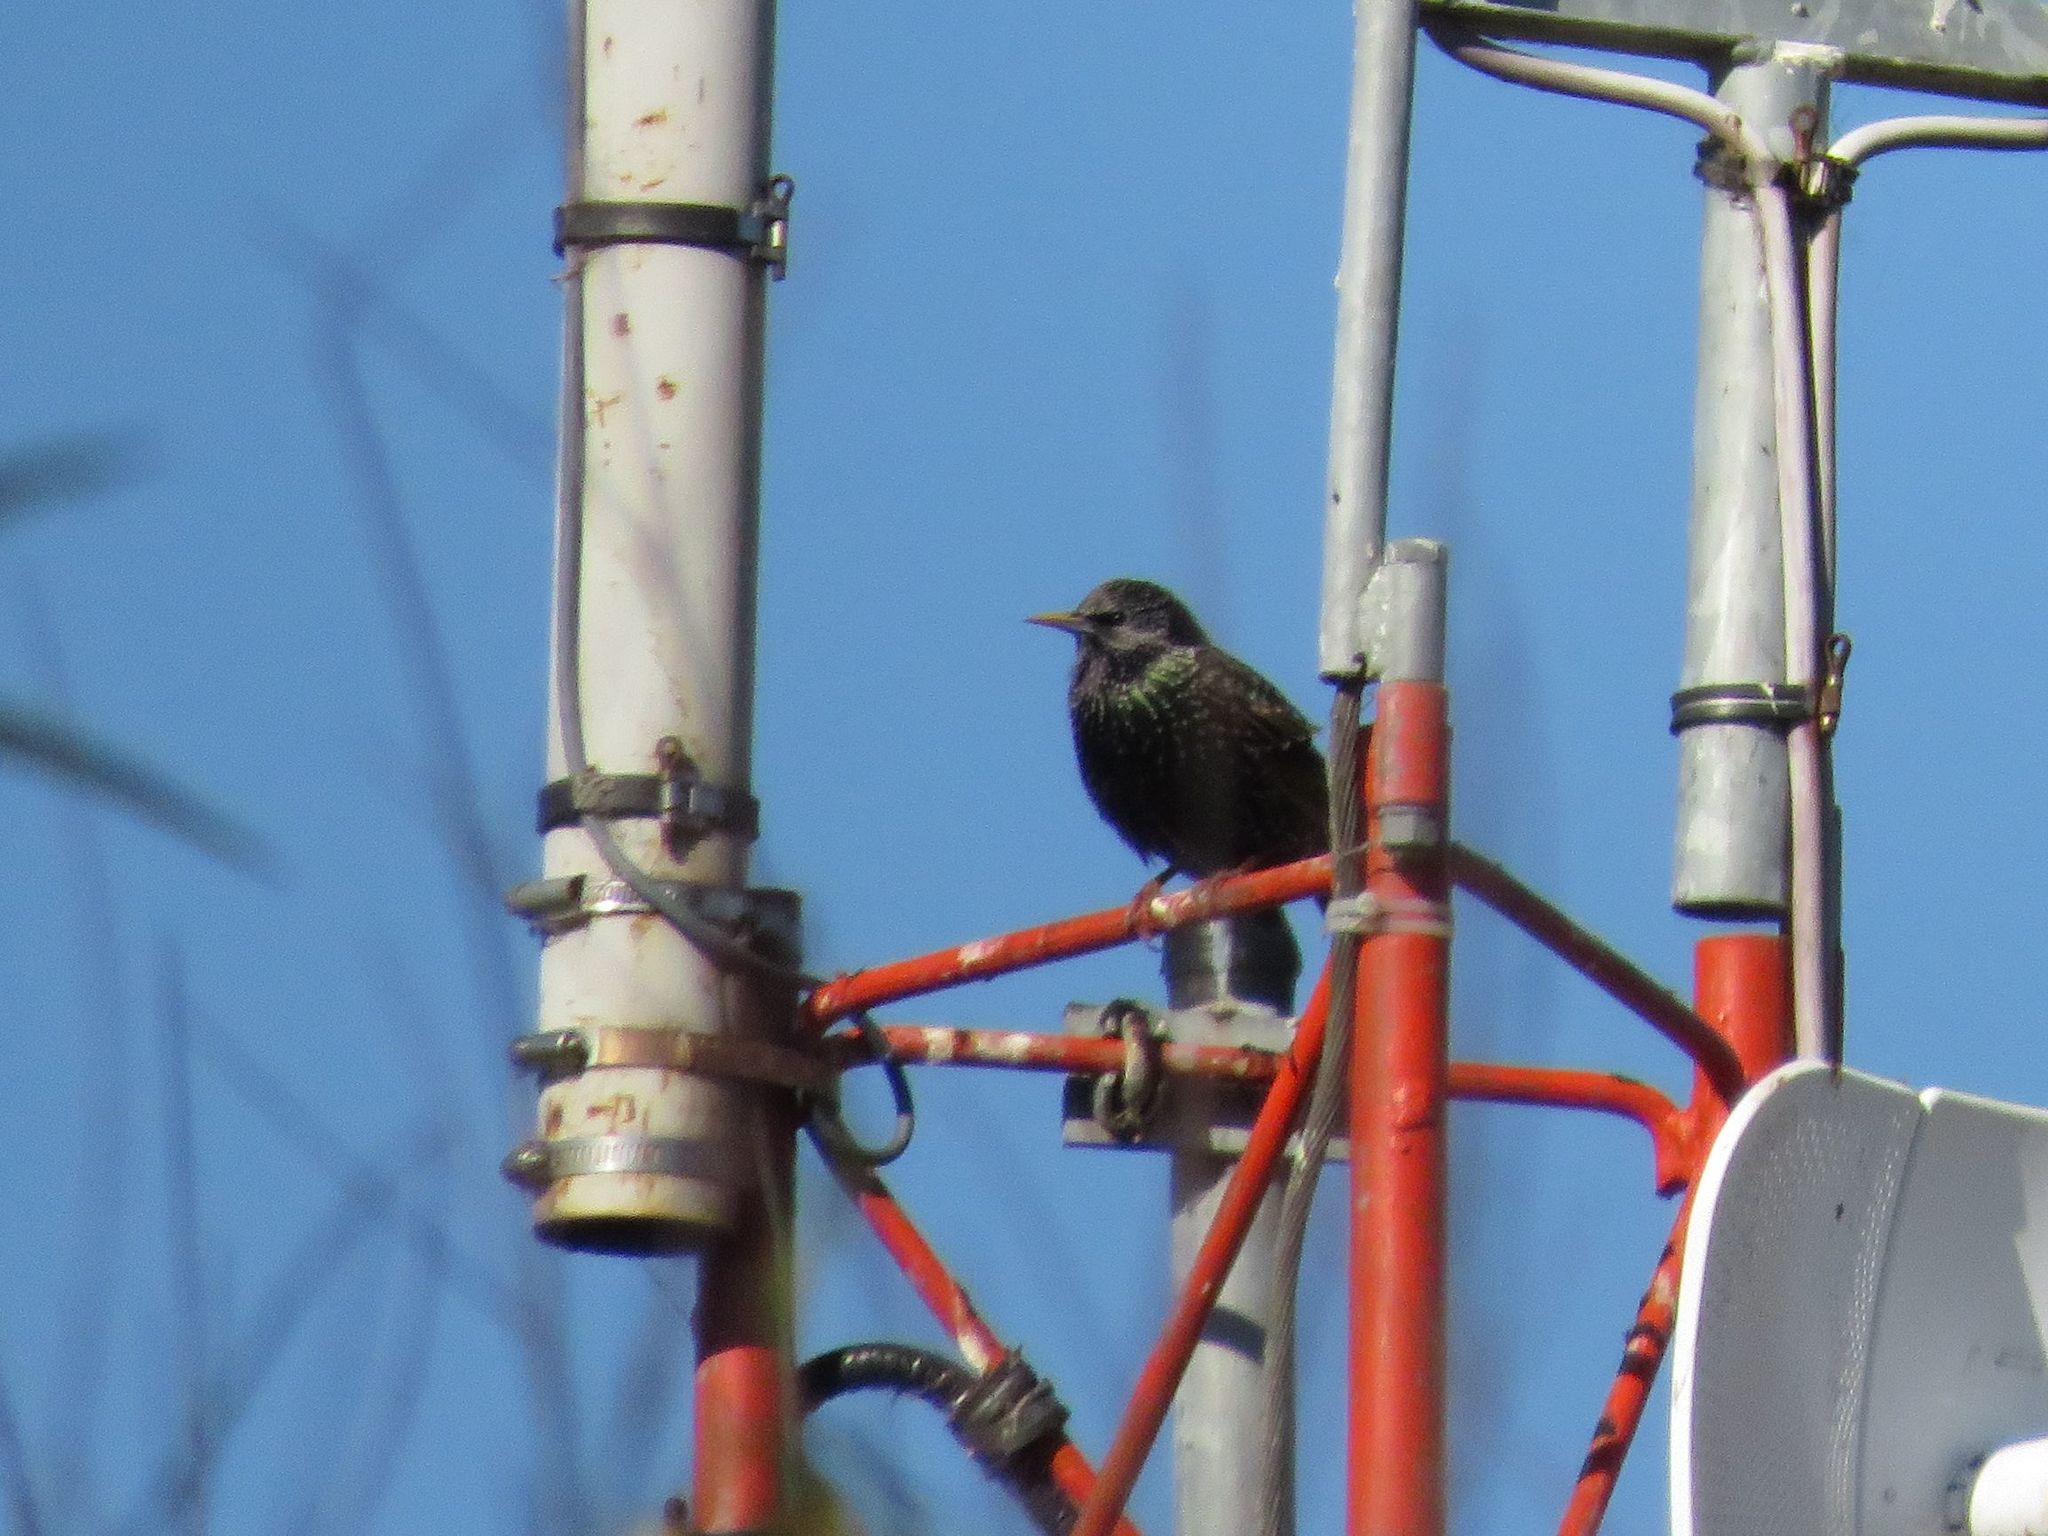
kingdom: Animalia
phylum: Chordata
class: Aves
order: Passeriformes
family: Sturnidae
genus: Sturnus
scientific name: Sturnus vulgaris
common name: Common starling
